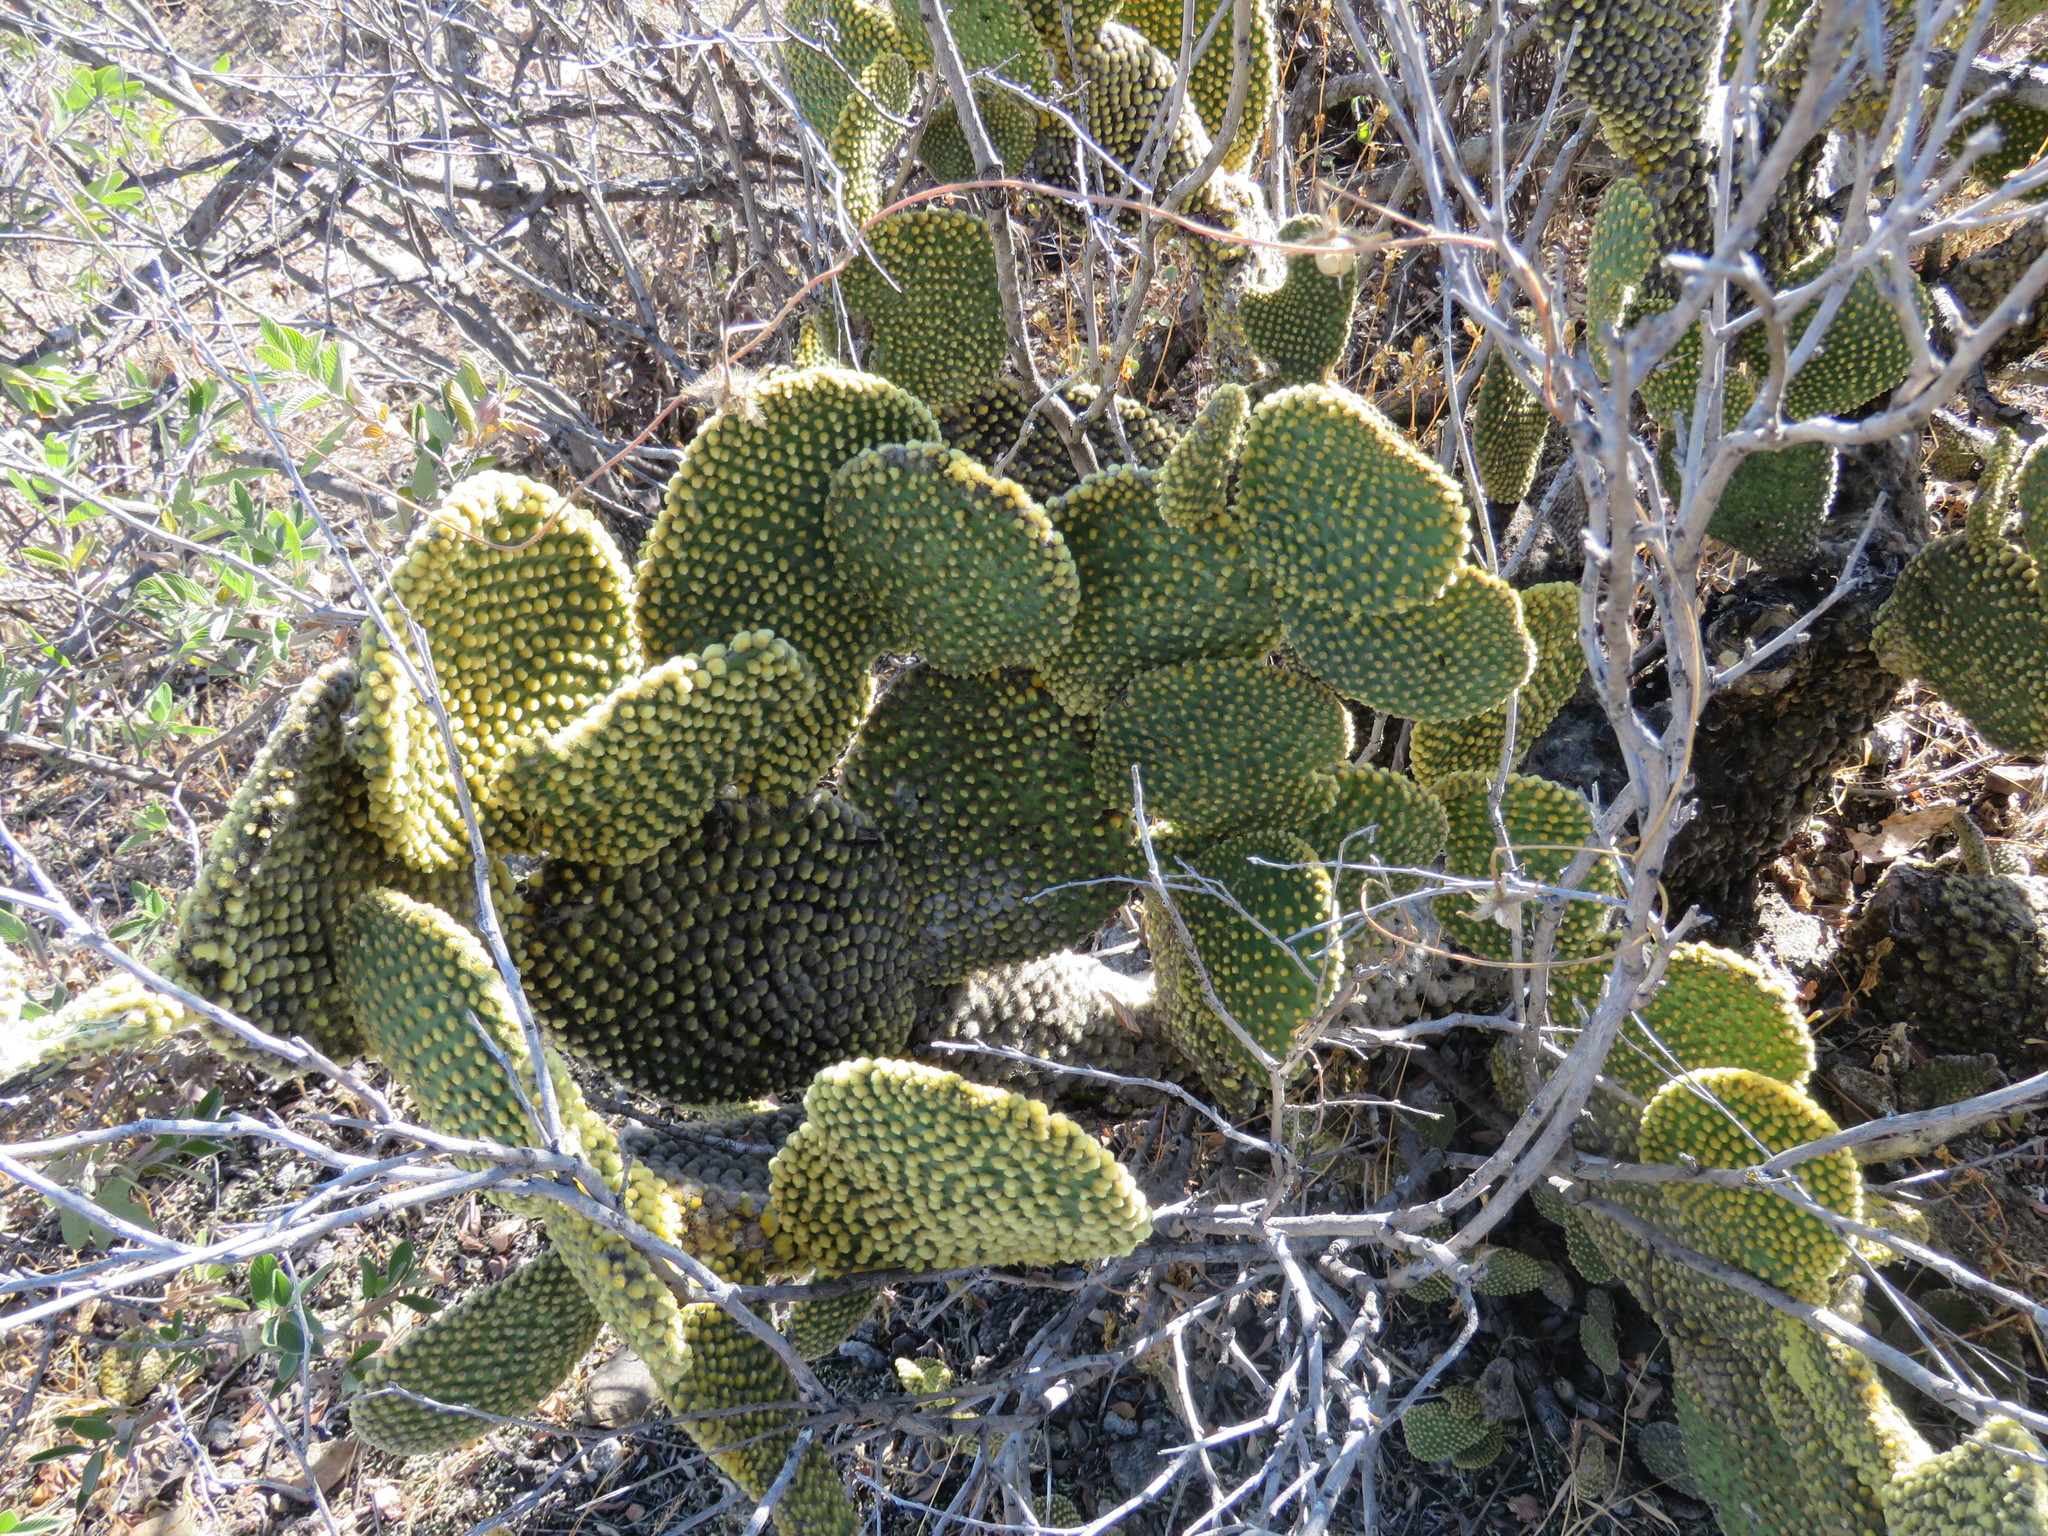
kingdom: Plantae
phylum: Tracheophyta
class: Magnoliopsida
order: Caryophyllales
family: Cactaceae
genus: Opuntia
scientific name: Opuntia microdasys
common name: Angel's-wings
